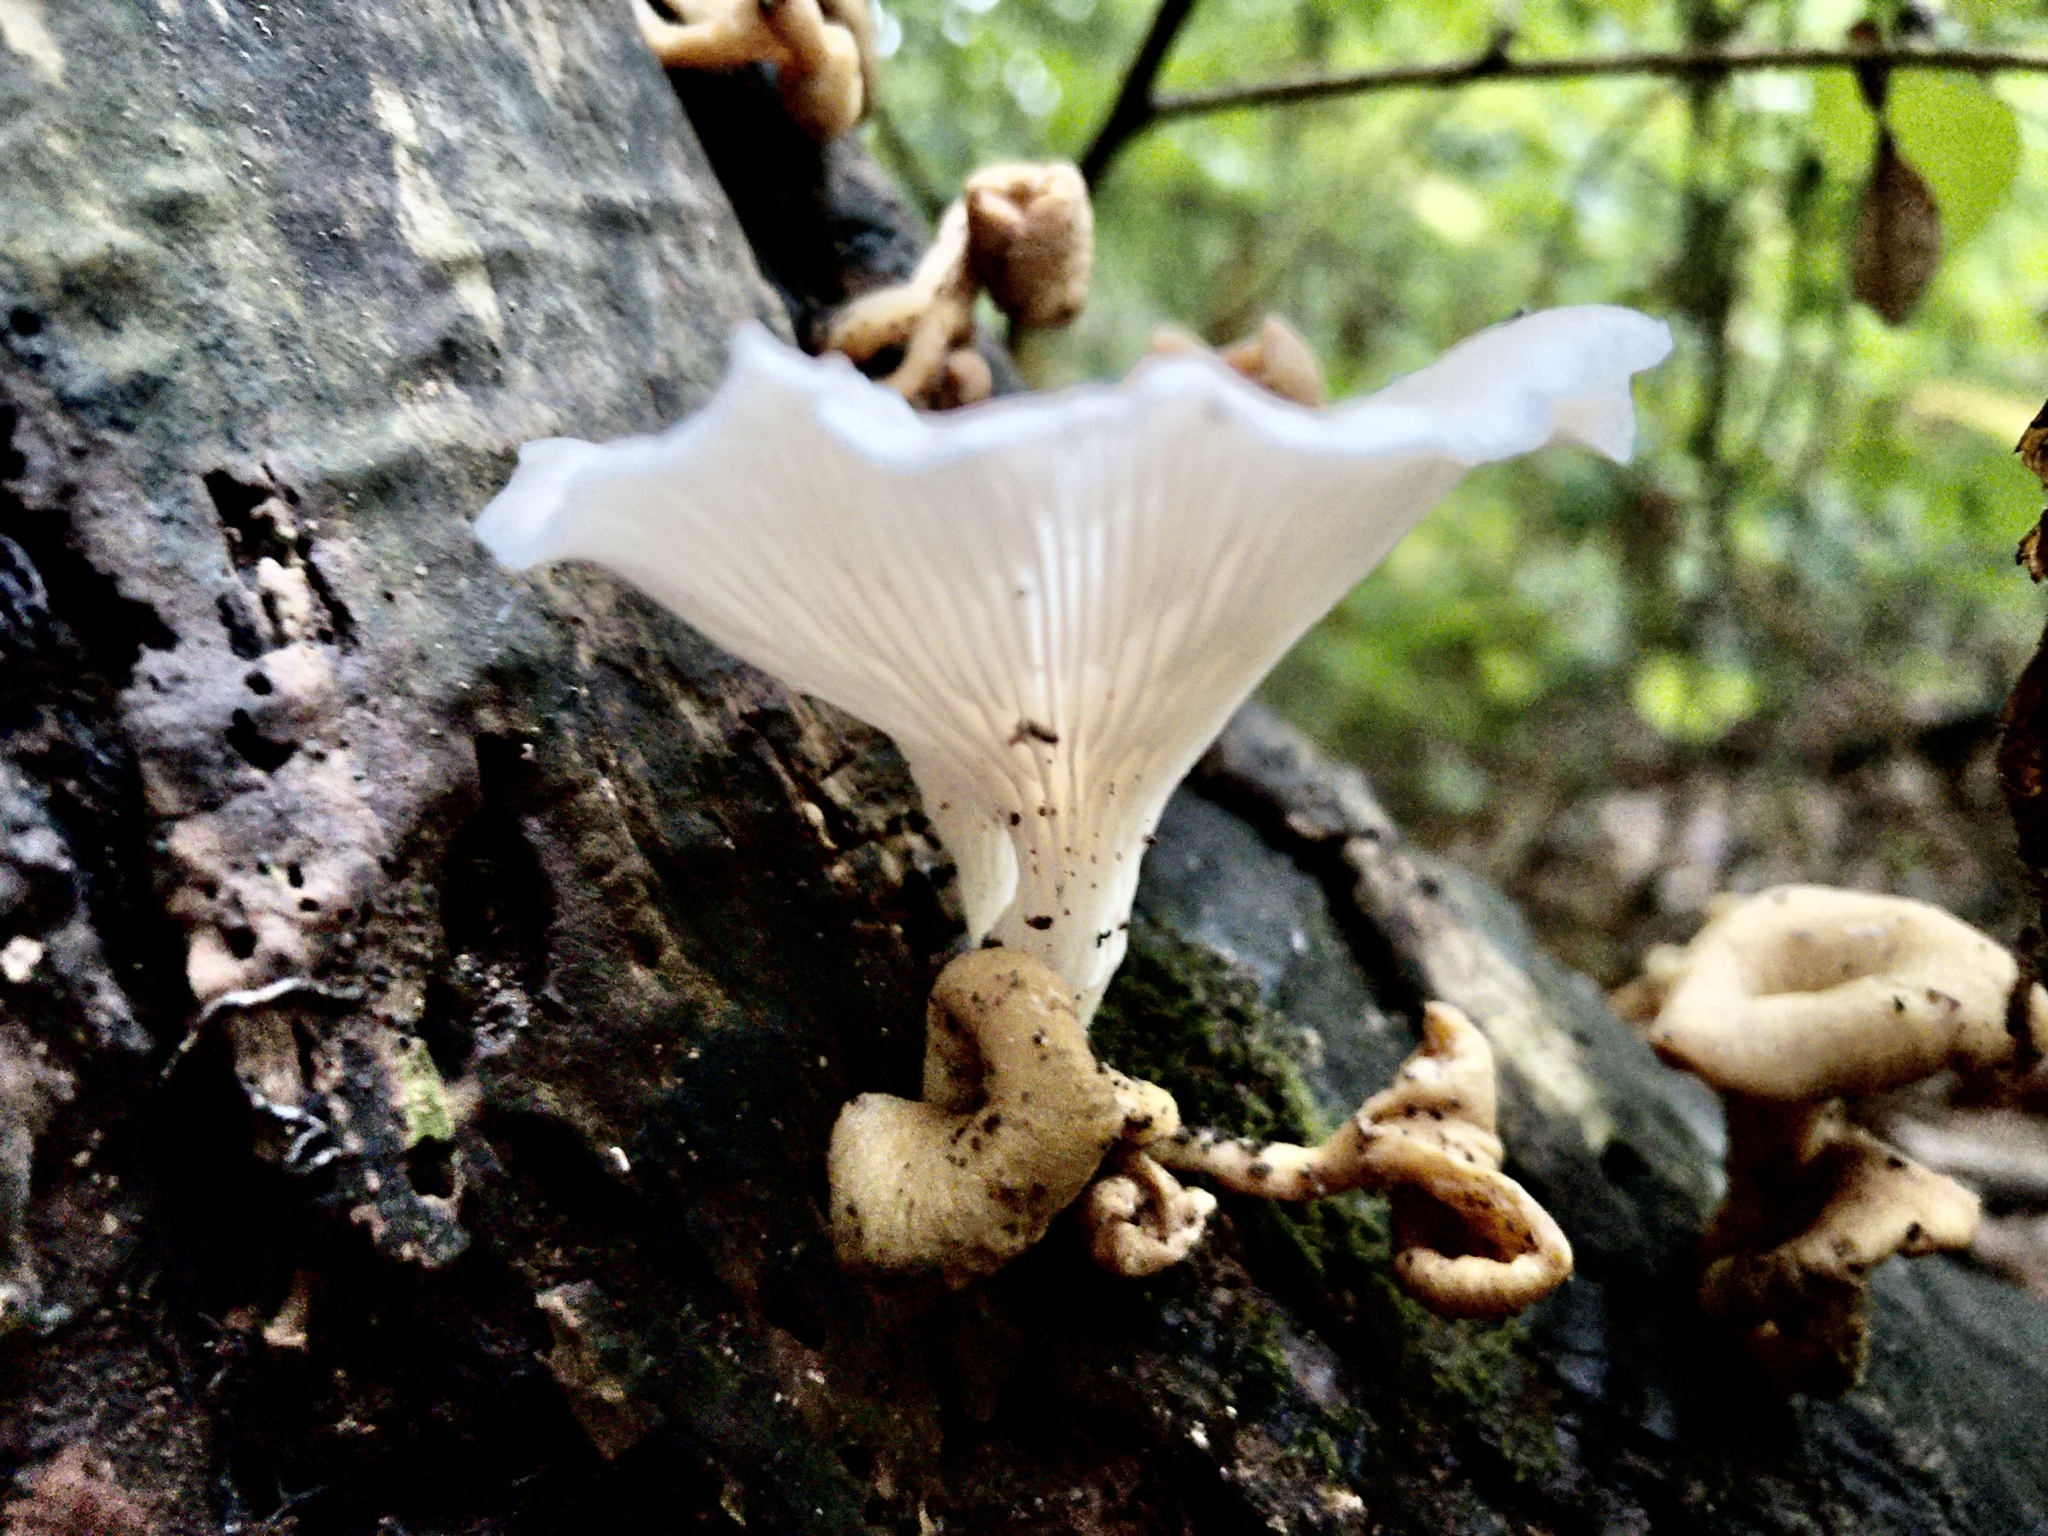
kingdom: Fungi
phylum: Basidiomycota
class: Agaricomycetes
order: Agaricales
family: Pleurotaceae
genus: Pleurotus
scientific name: Pleurotus pulmonarius
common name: Pale oyster
